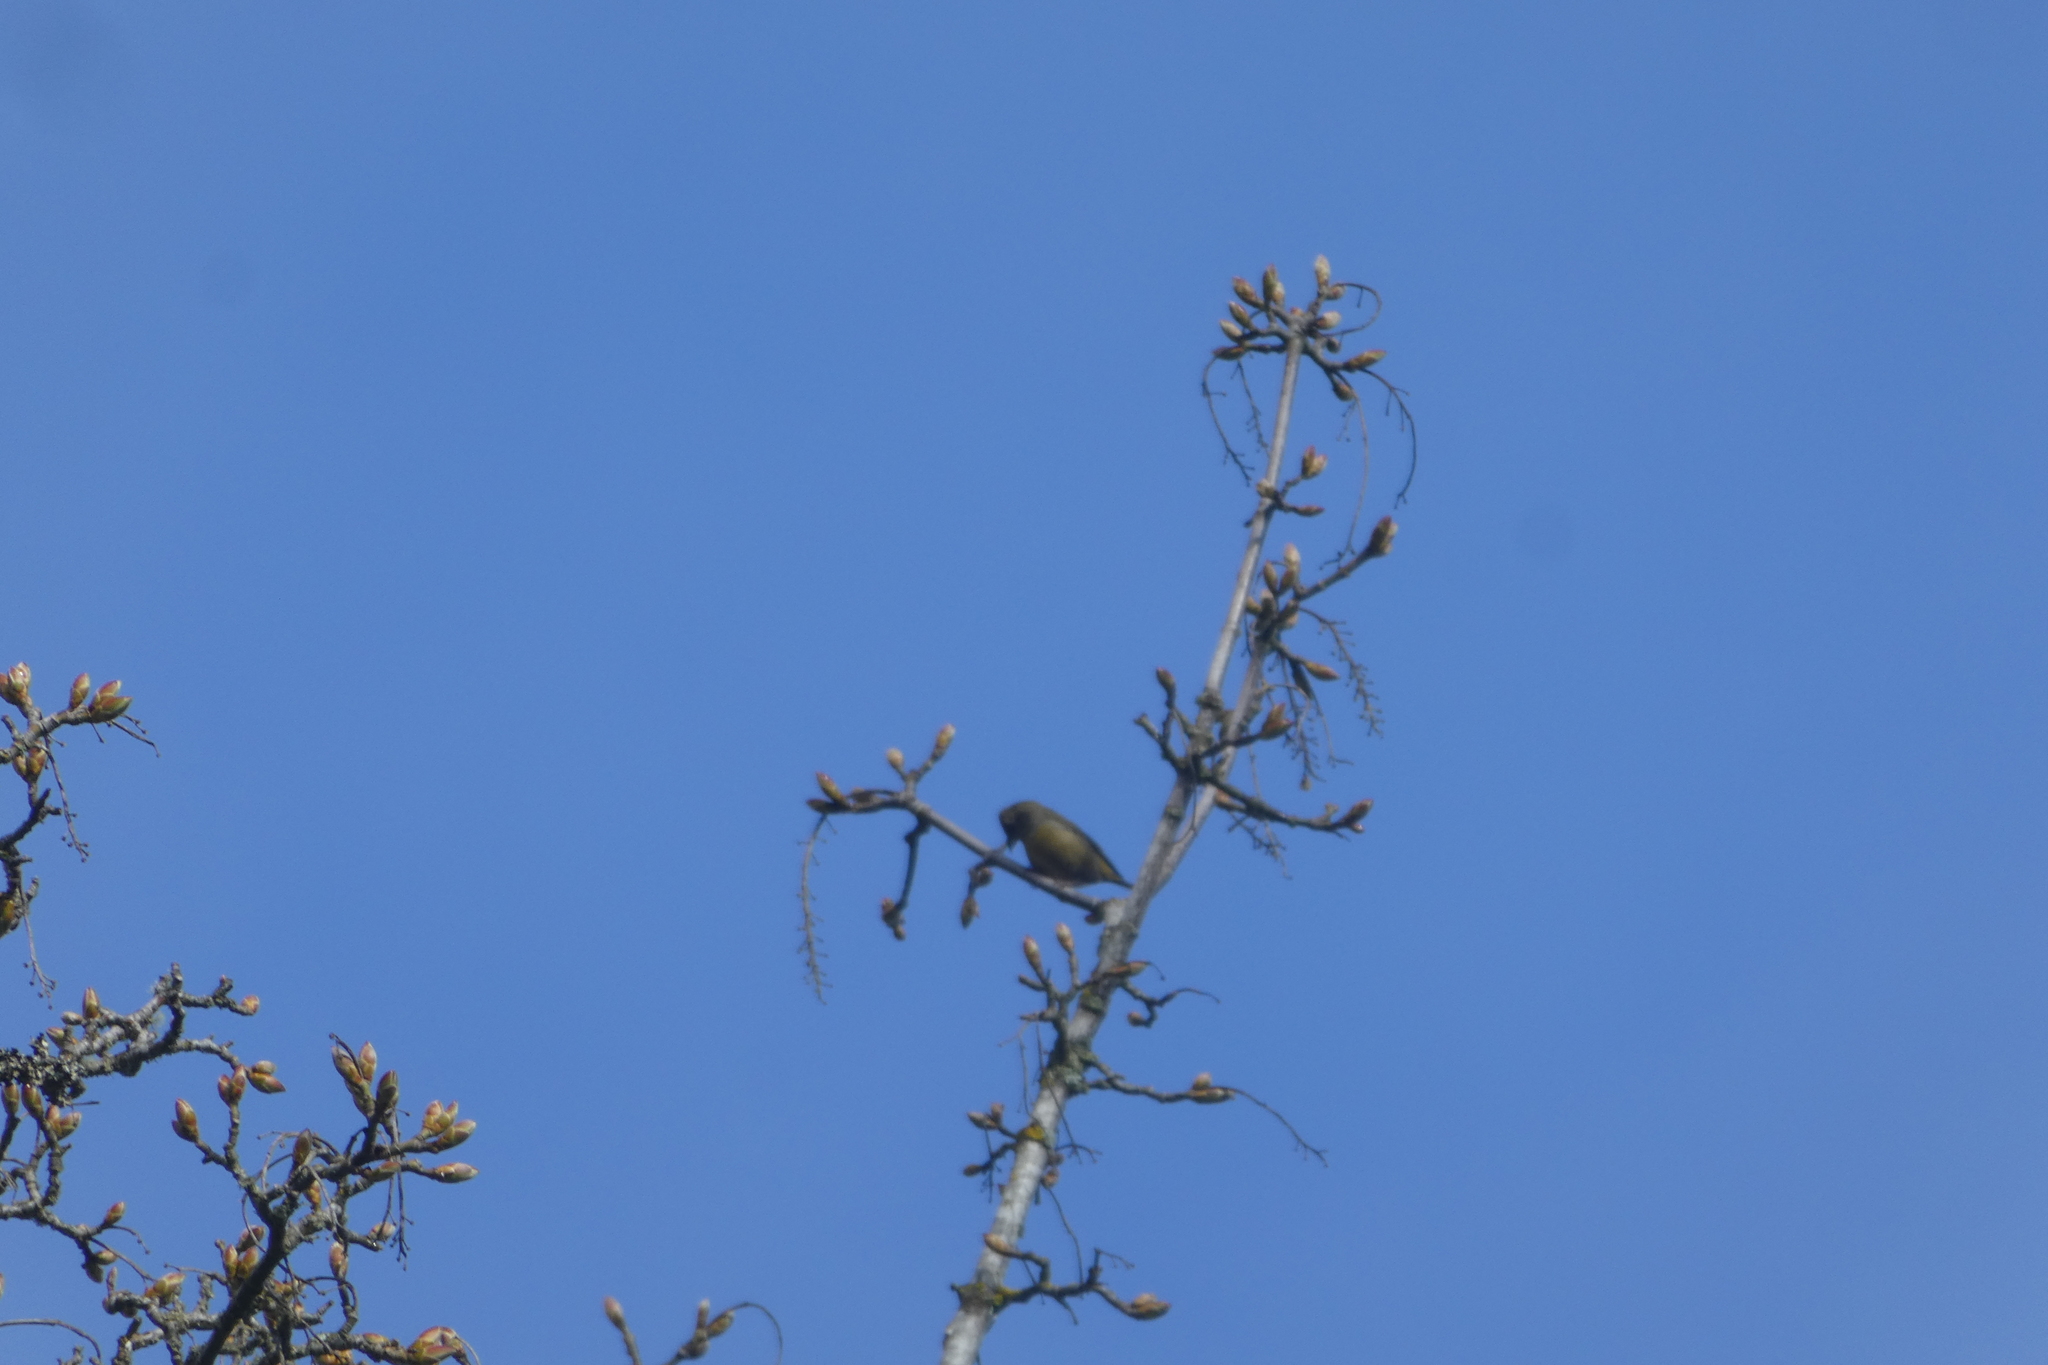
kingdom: Animalia
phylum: Chordata
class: Aves
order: Passeriformes
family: Fringillidae
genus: Loxia
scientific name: Loxia curvirostra
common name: Red crossbill
